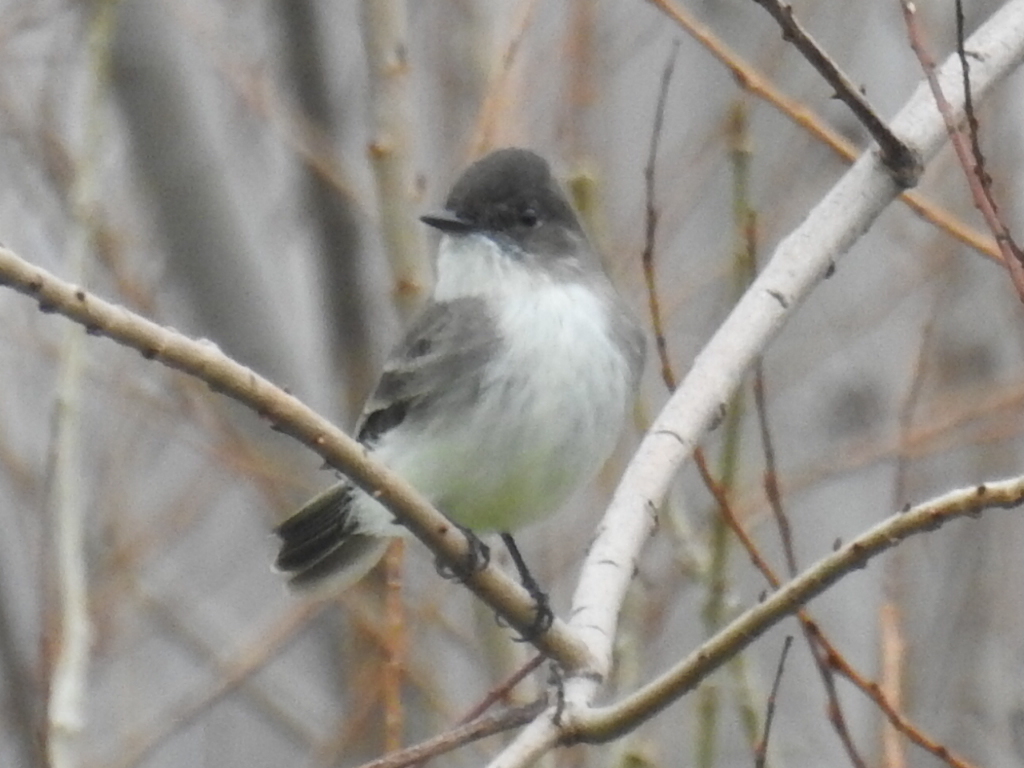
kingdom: Animalia
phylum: Chordata
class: Aves
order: Passeriformes
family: Tyrannidae
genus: Sayornis
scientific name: Sayornis phoebe
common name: Eastern phoebe
